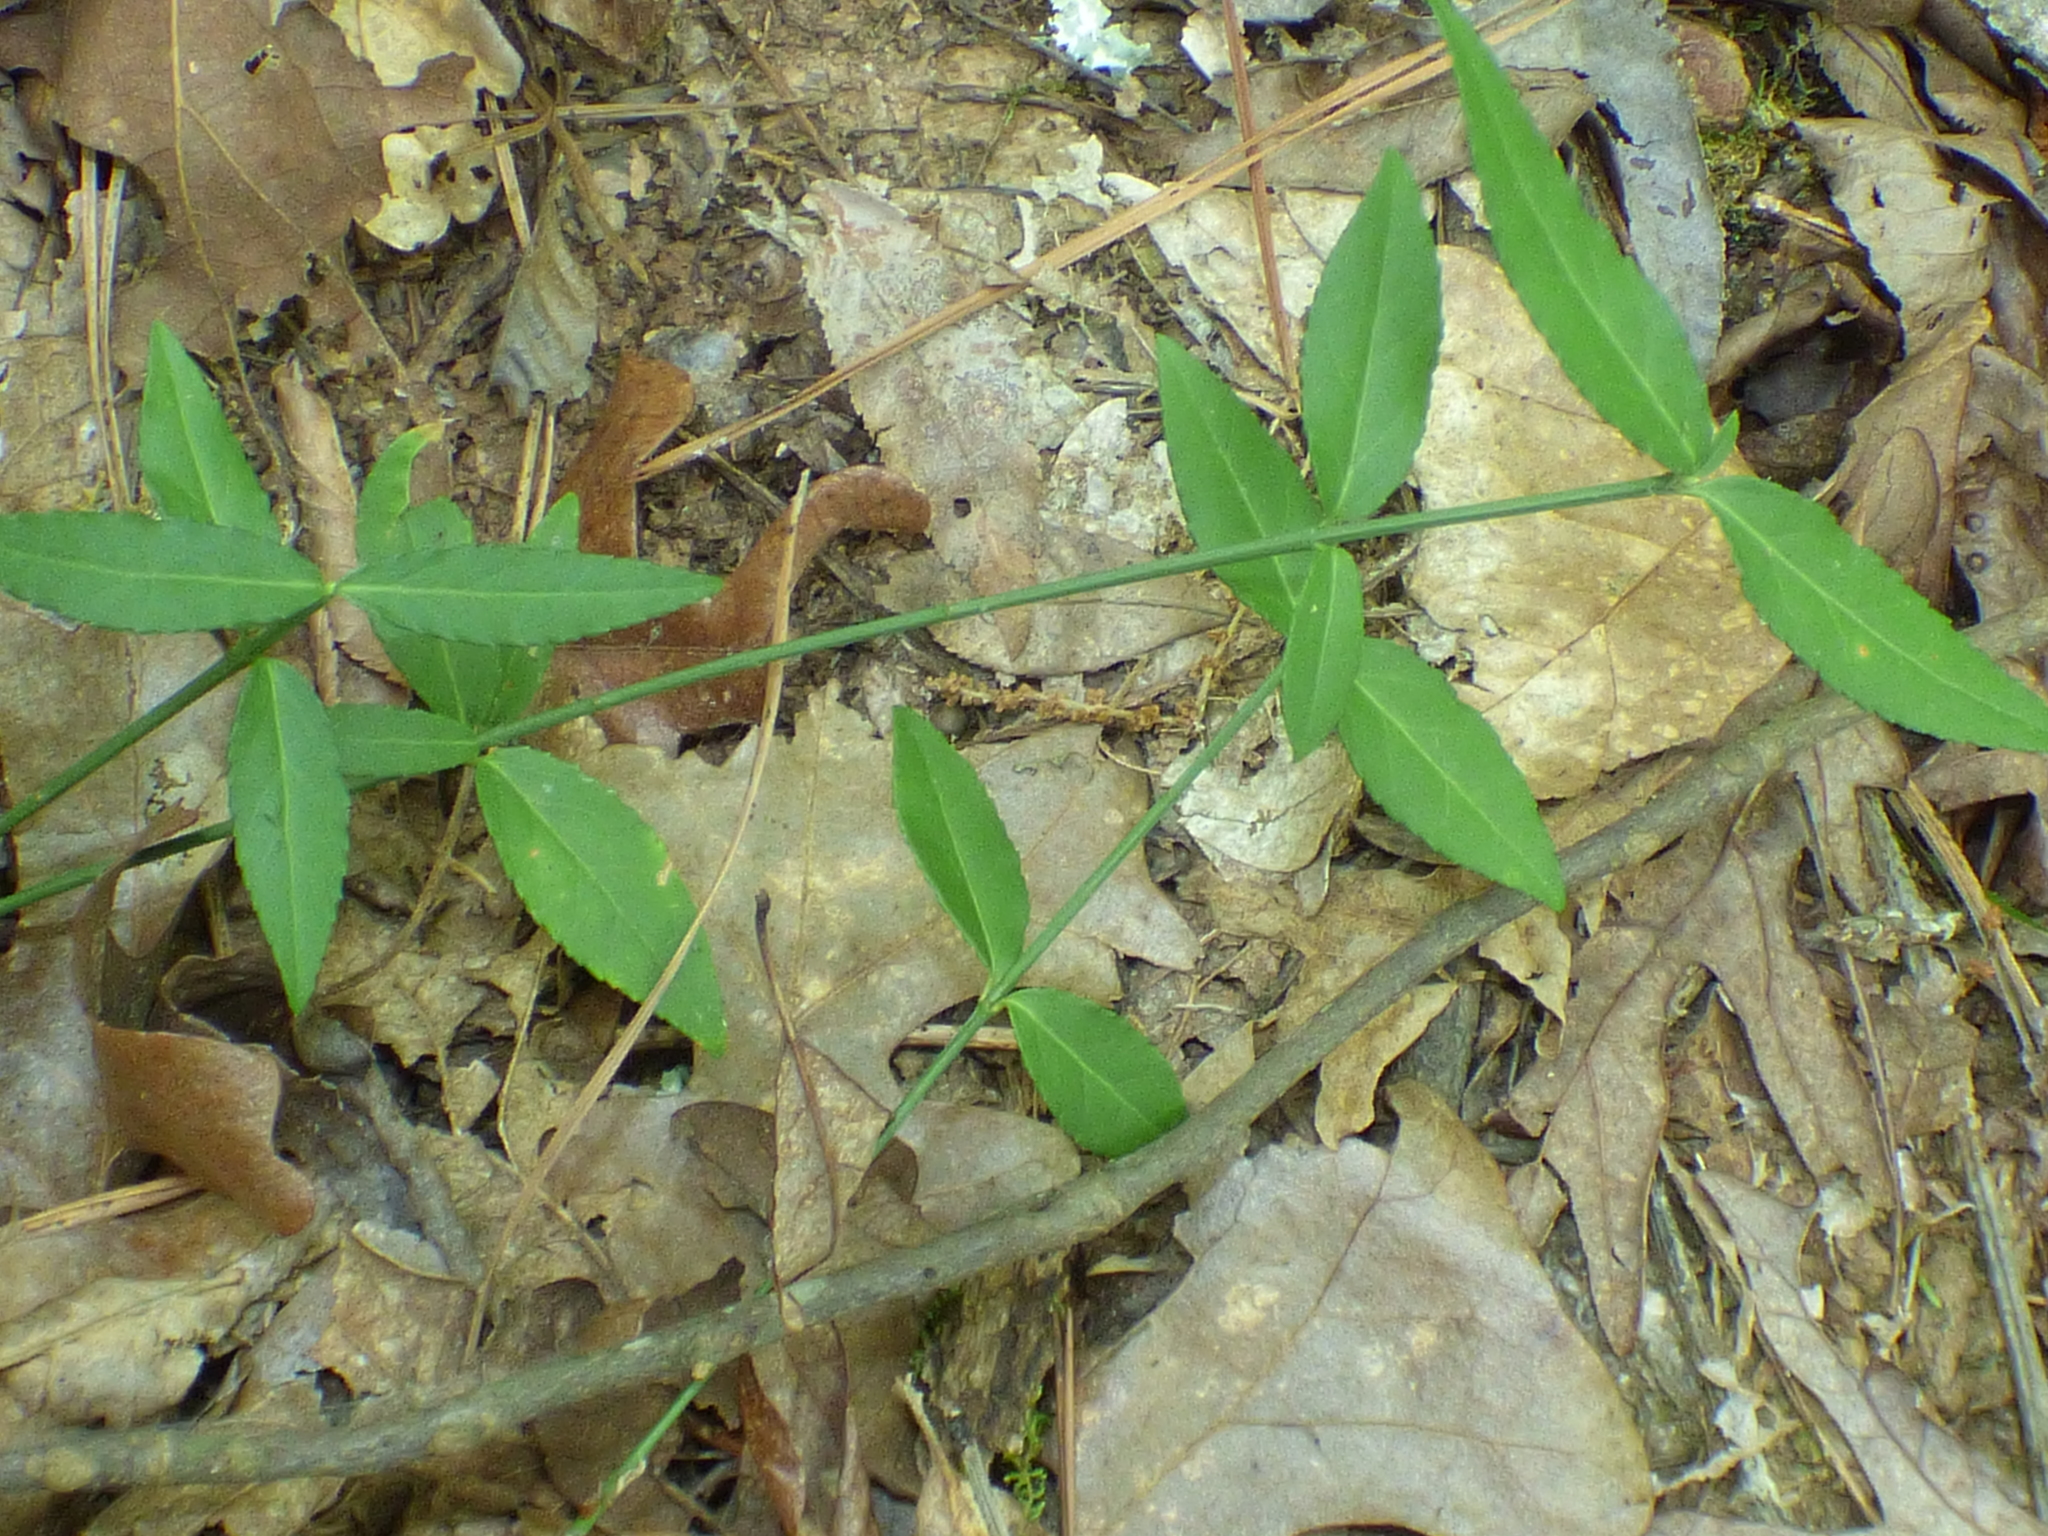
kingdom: Plantae
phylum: Tracheophyta
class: Magnoliopsida
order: Celastrales
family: Celastraceae
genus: Euonymus
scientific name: Euonymus americanus
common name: Bursting-heart
